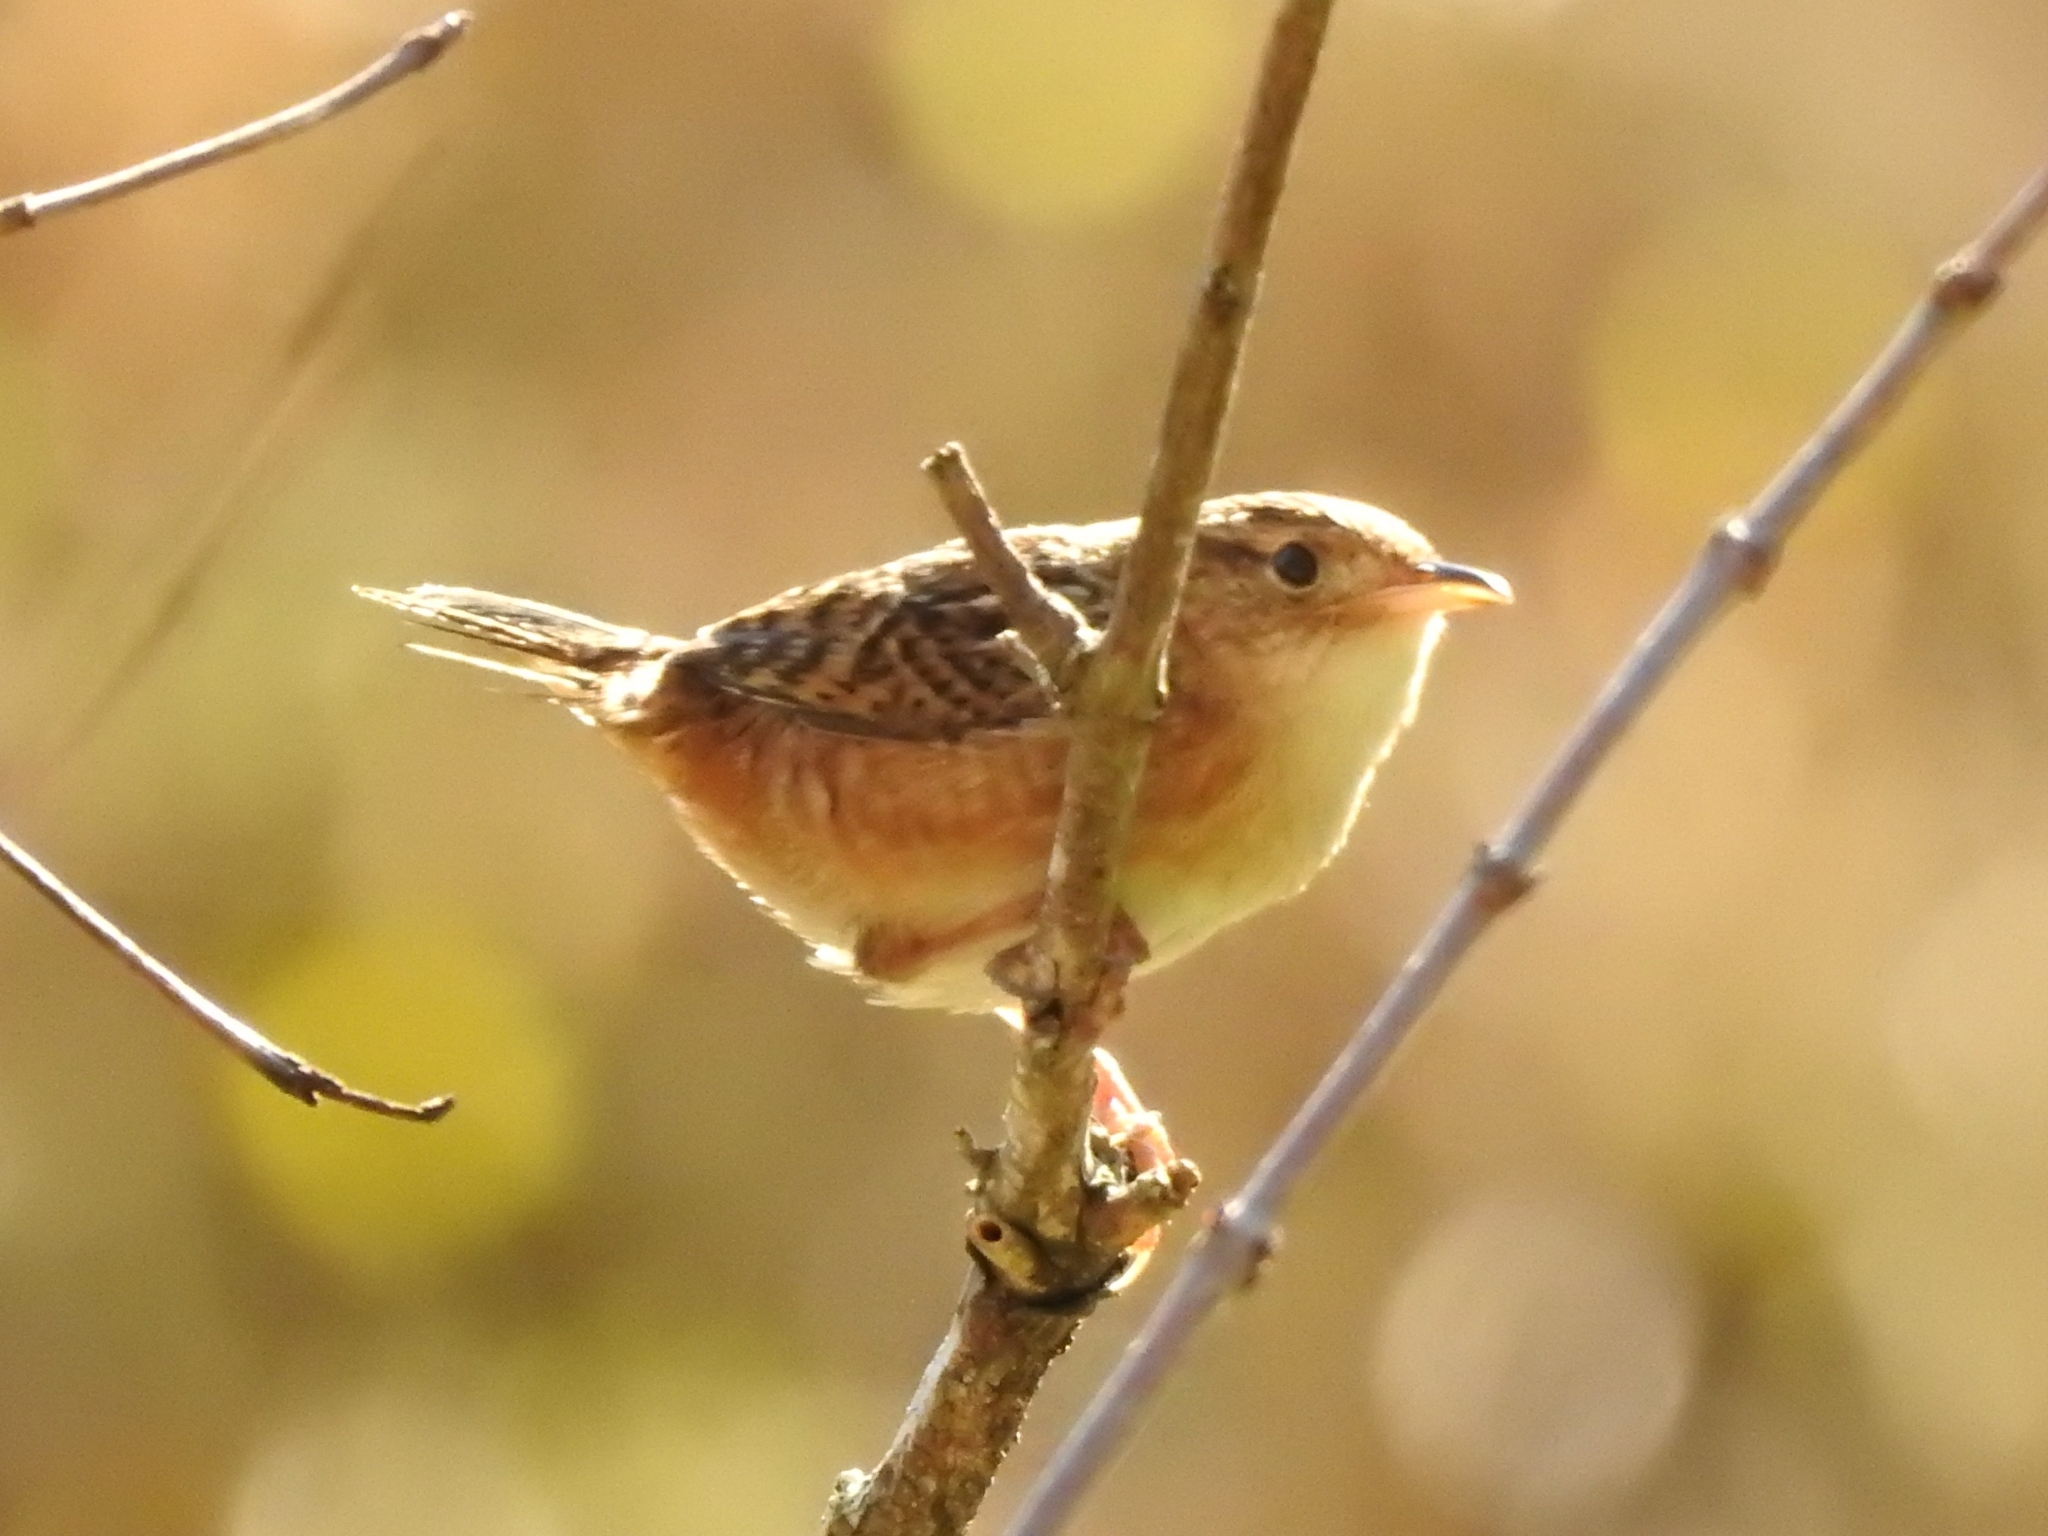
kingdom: Animalia
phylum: Chordata
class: Aves
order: Passeriformes
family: Troglodytidae
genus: Cistothorus
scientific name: Cistothorus platensis
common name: Sedge wren
